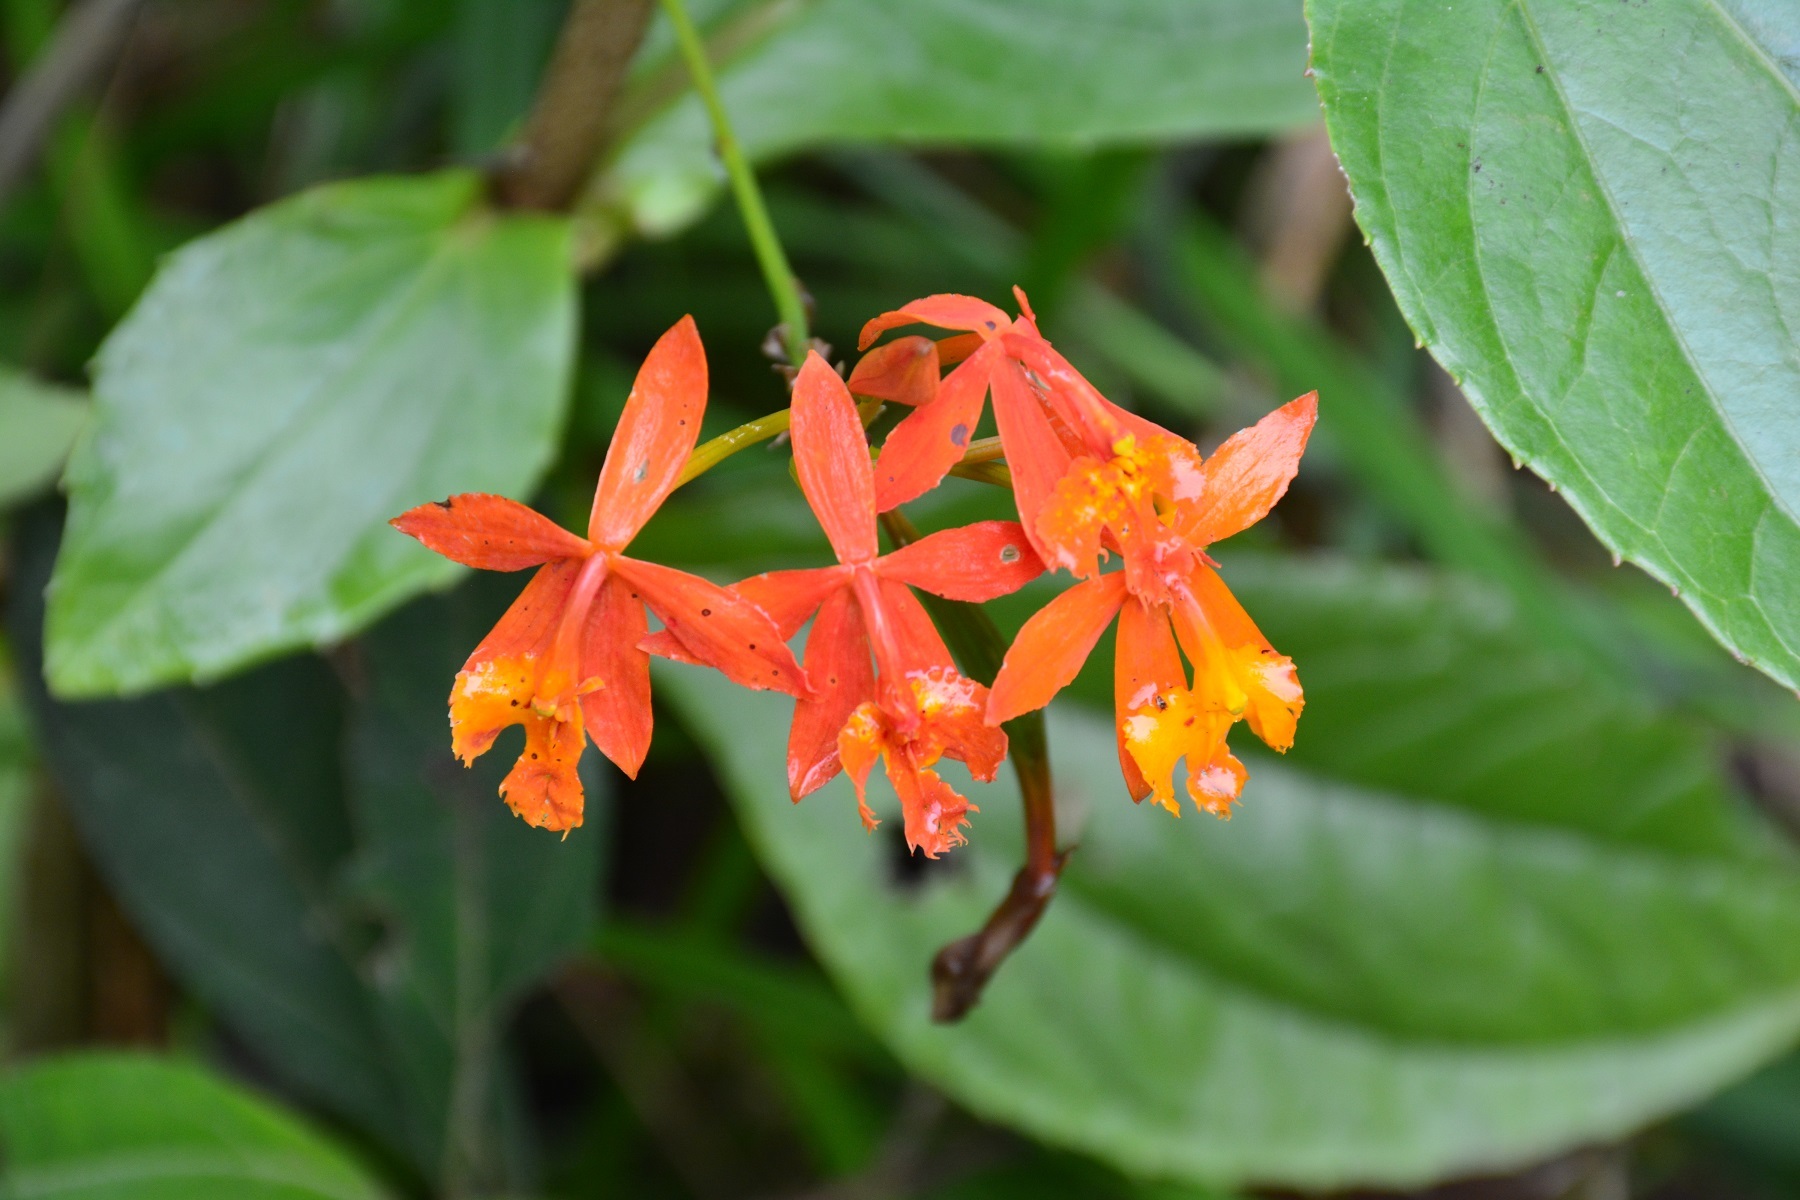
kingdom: Plantae
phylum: Tracheophyta
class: Liliopsida
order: Asparagales
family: Orchidaceae
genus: Epidendrum
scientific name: Epidendrum radicans
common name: Fire star orchid
